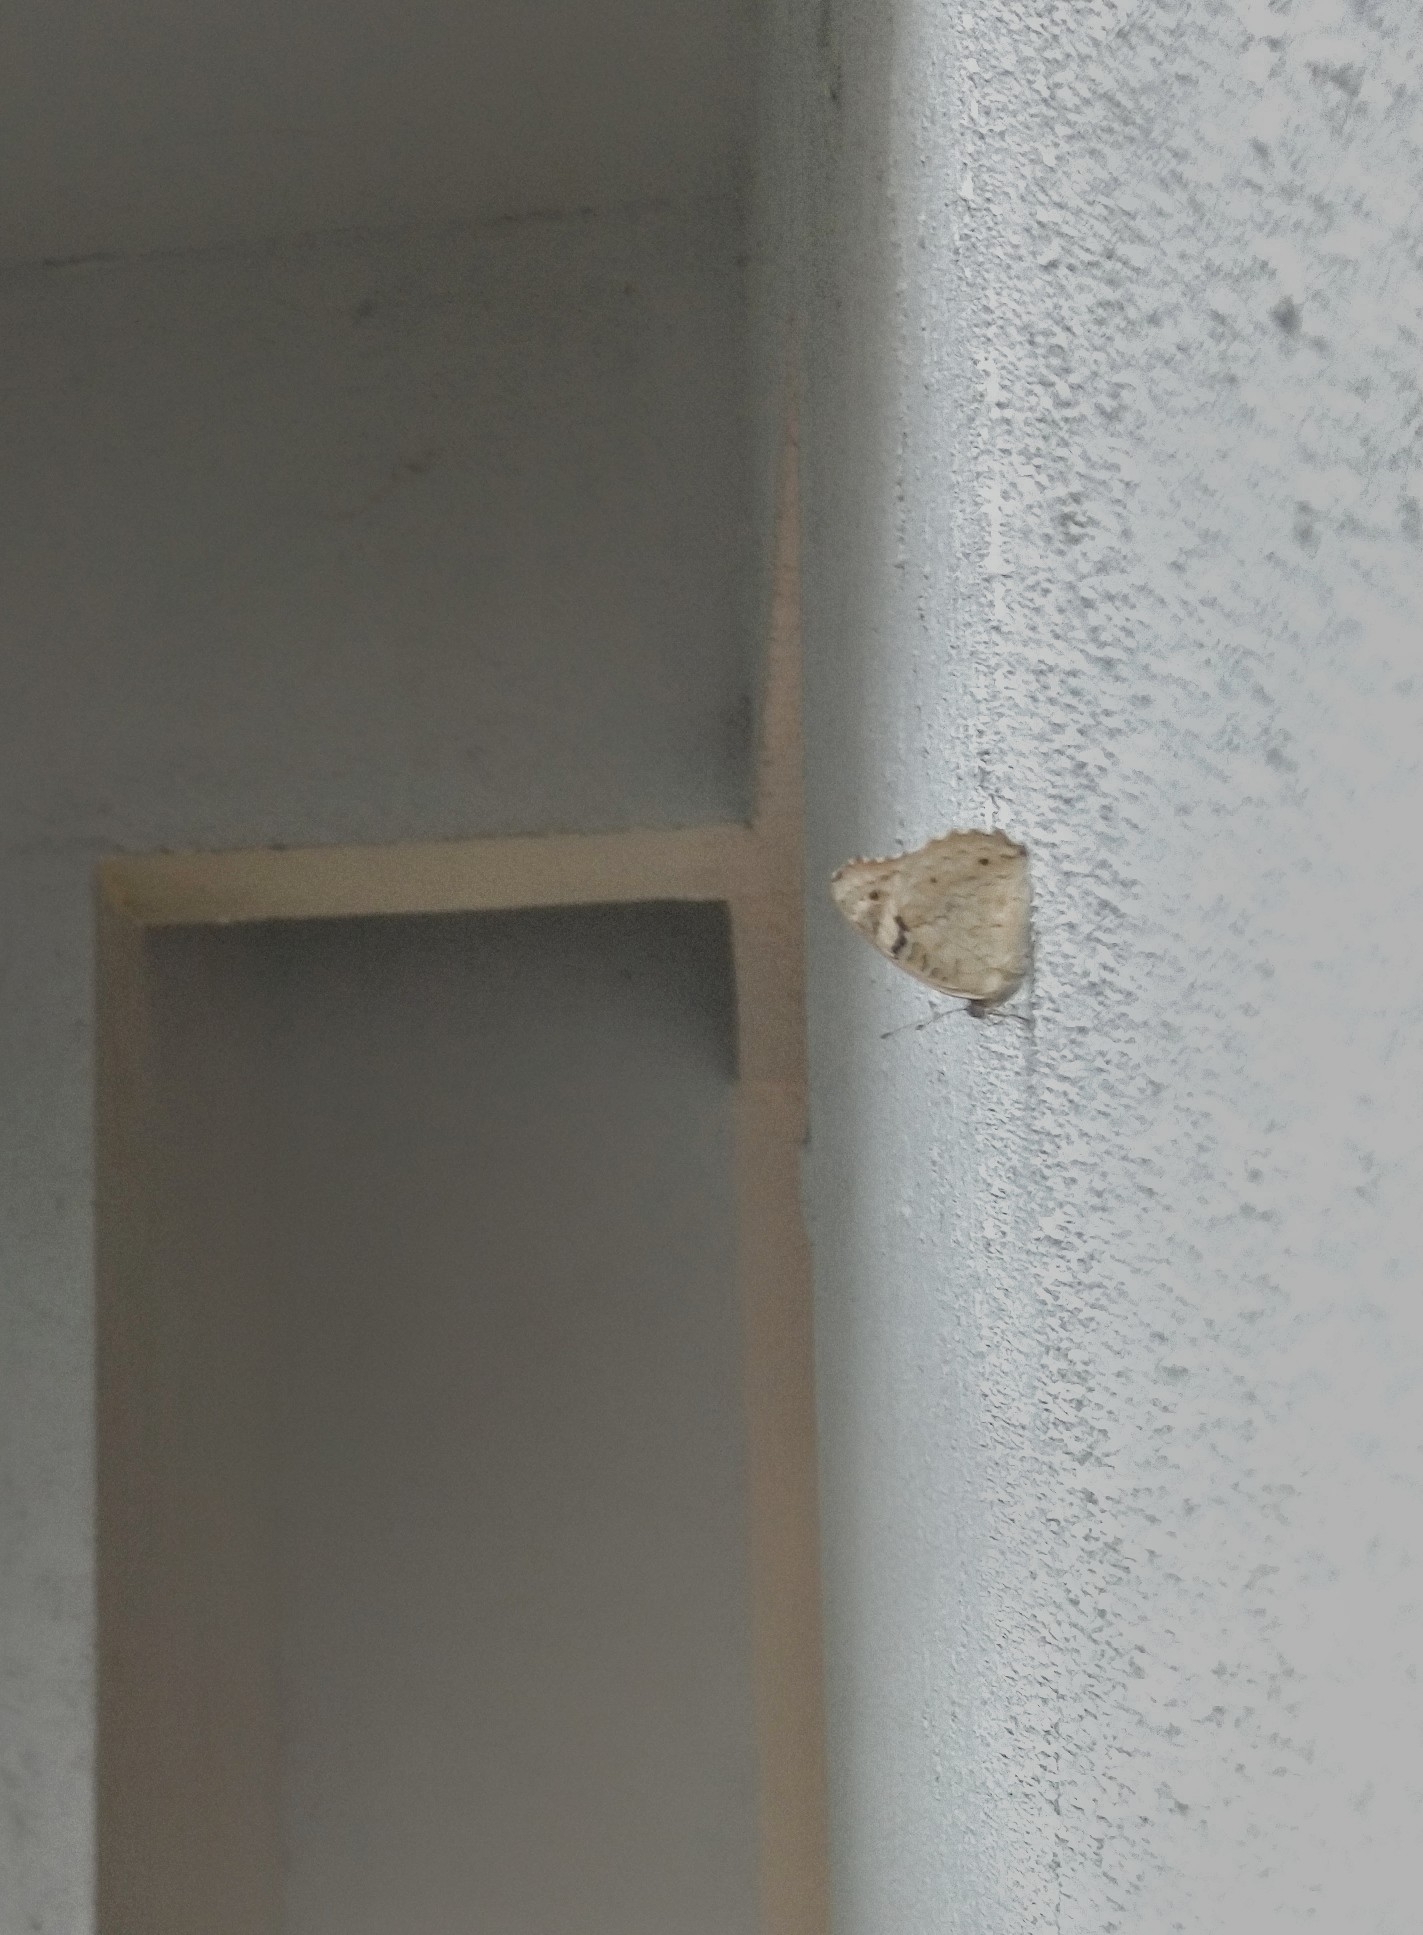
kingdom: Animalia
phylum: Arthropoda
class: Insecta
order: Lepidoptera
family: Nymphalidae
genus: Junonia
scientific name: Junonia orithya
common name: Blue pansy
